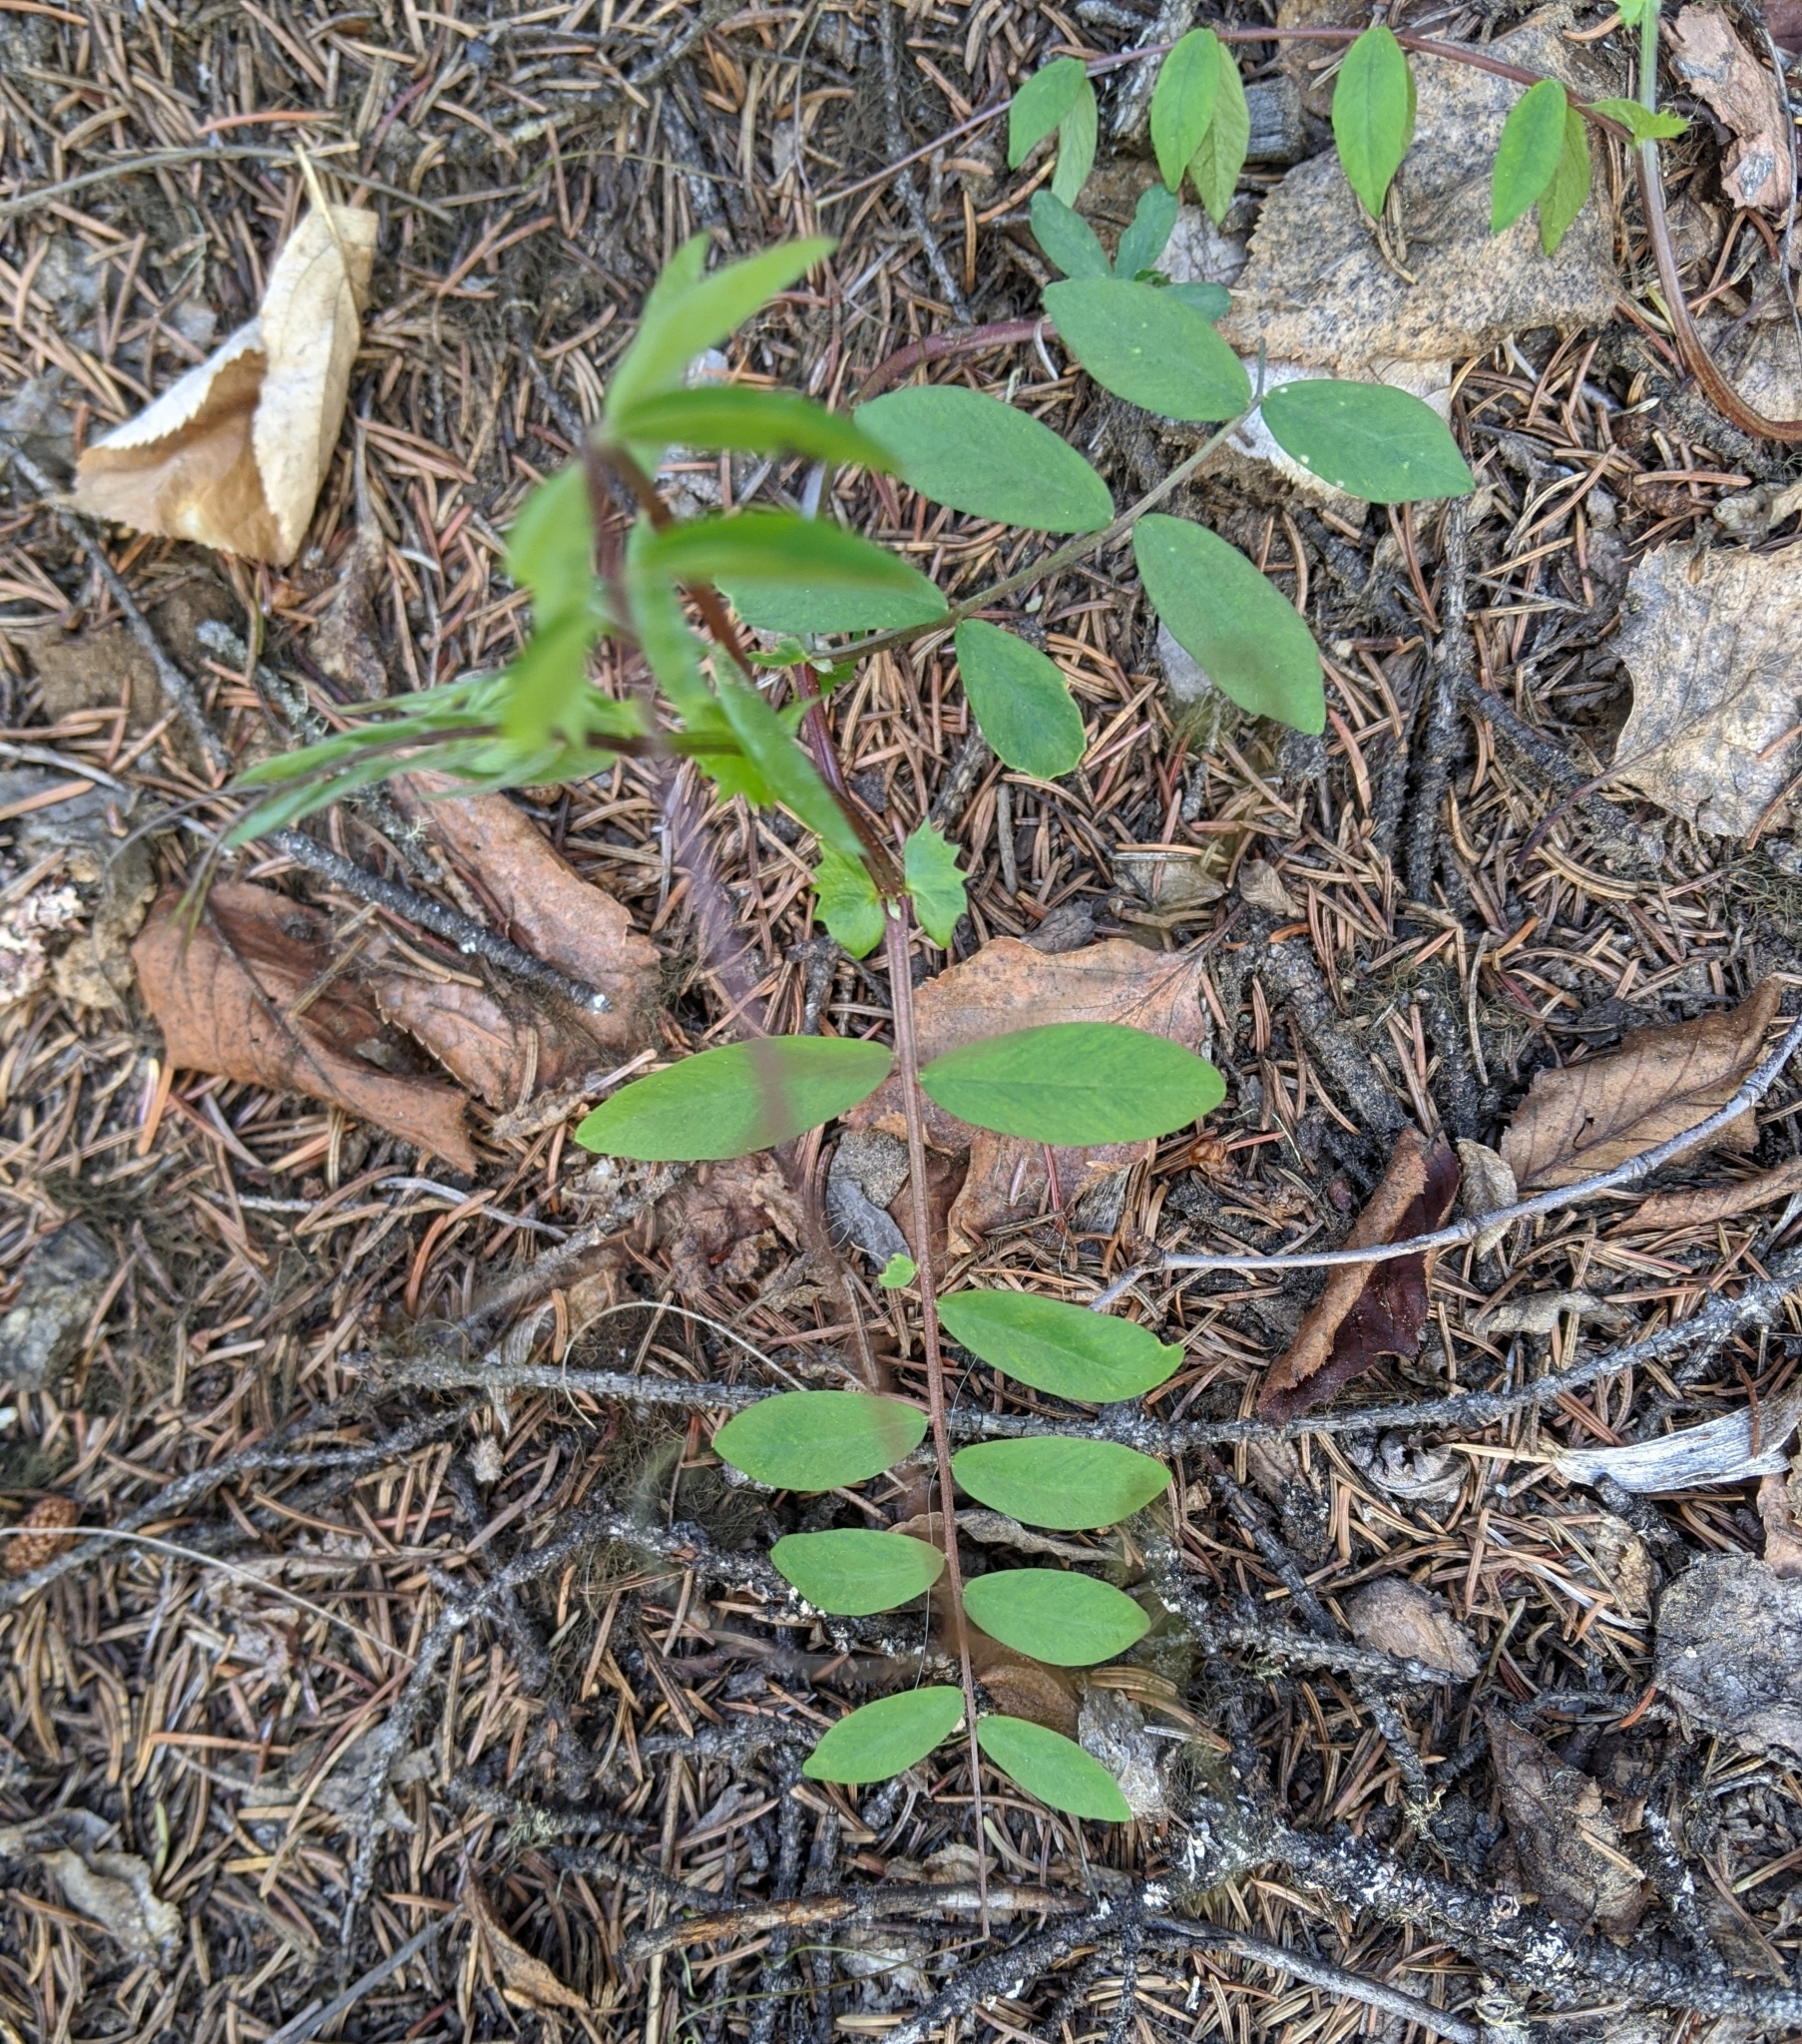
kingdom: Plantae
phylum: Tracheophyta
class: Magnoliopsida
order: Fabales
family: Fabaceae
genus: Vicia
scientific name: Vicia americana
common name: American vetch
